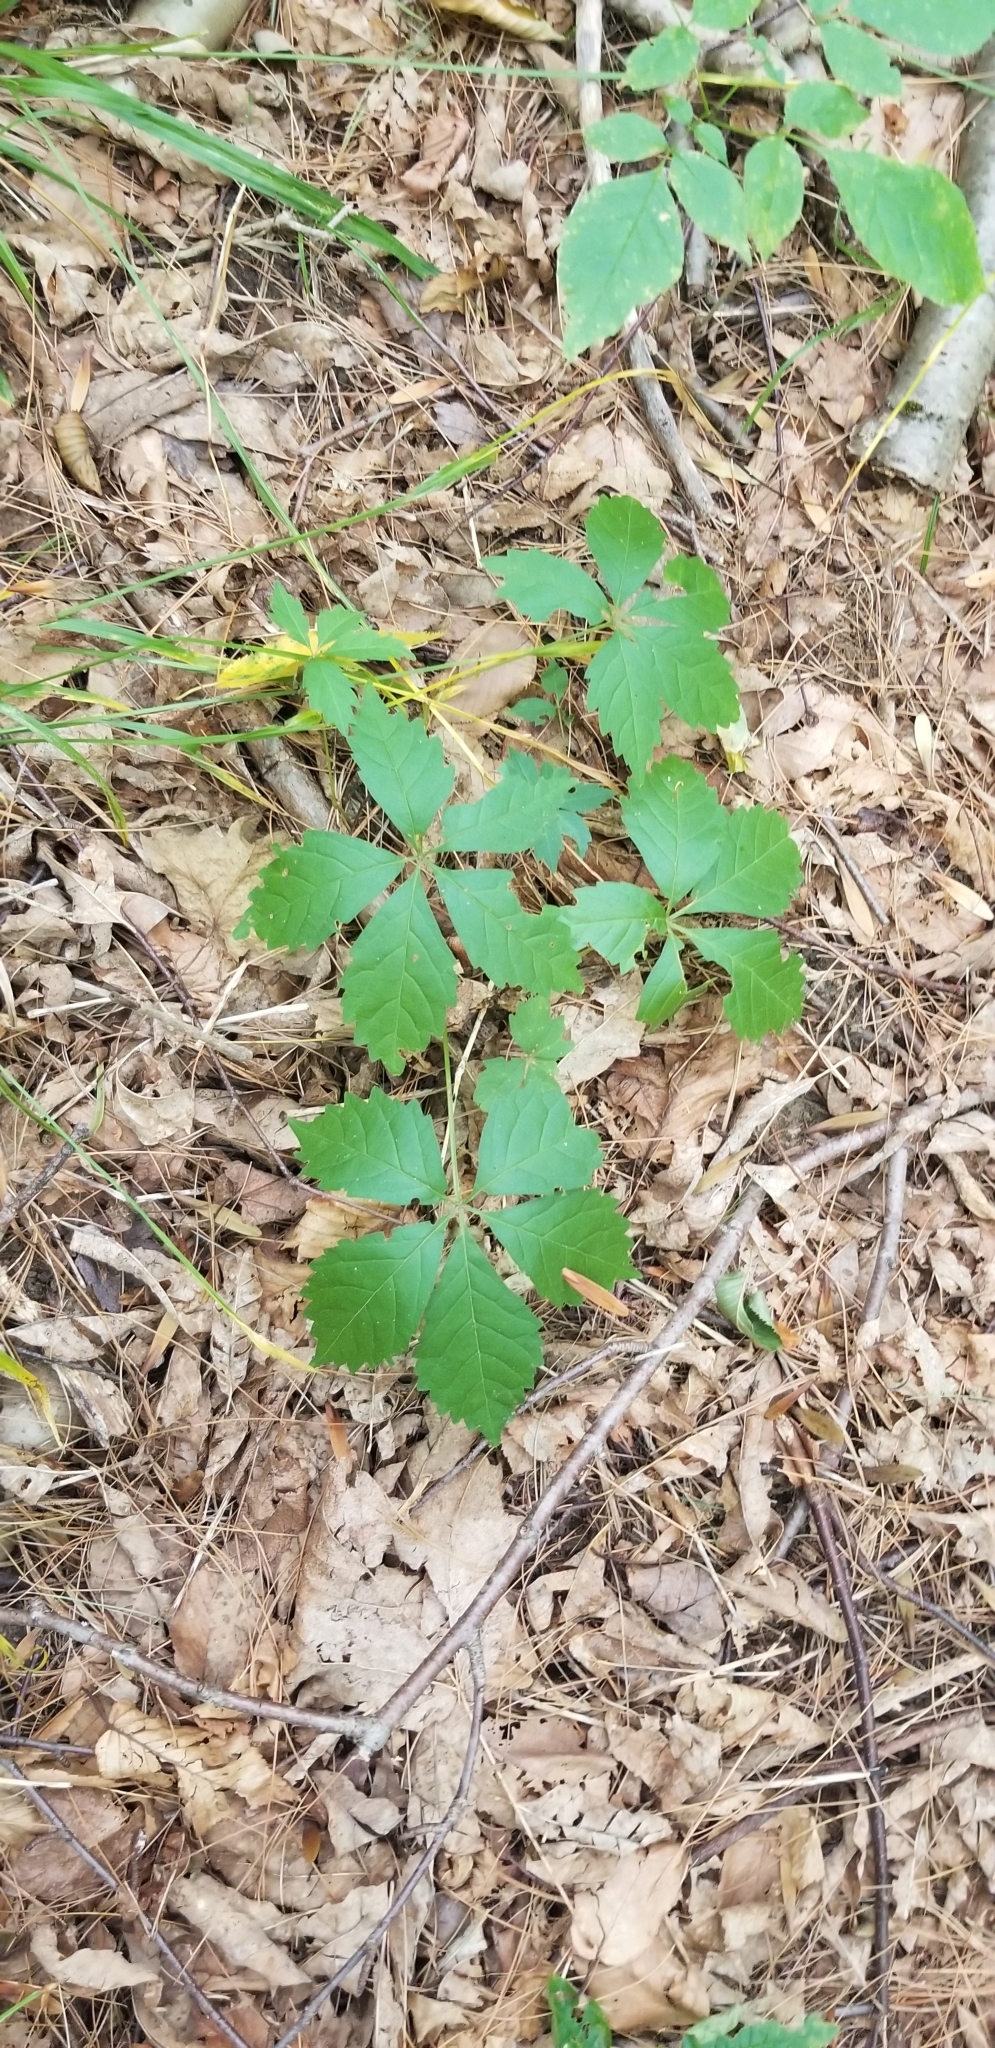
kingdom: Plantae
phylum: Tracheophyta
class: Magnoliopsida
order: Vitales
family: Vitaceae
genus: Parthenocissus
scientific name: Parthenocissus quinquefolia
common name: Virginia-creeper
